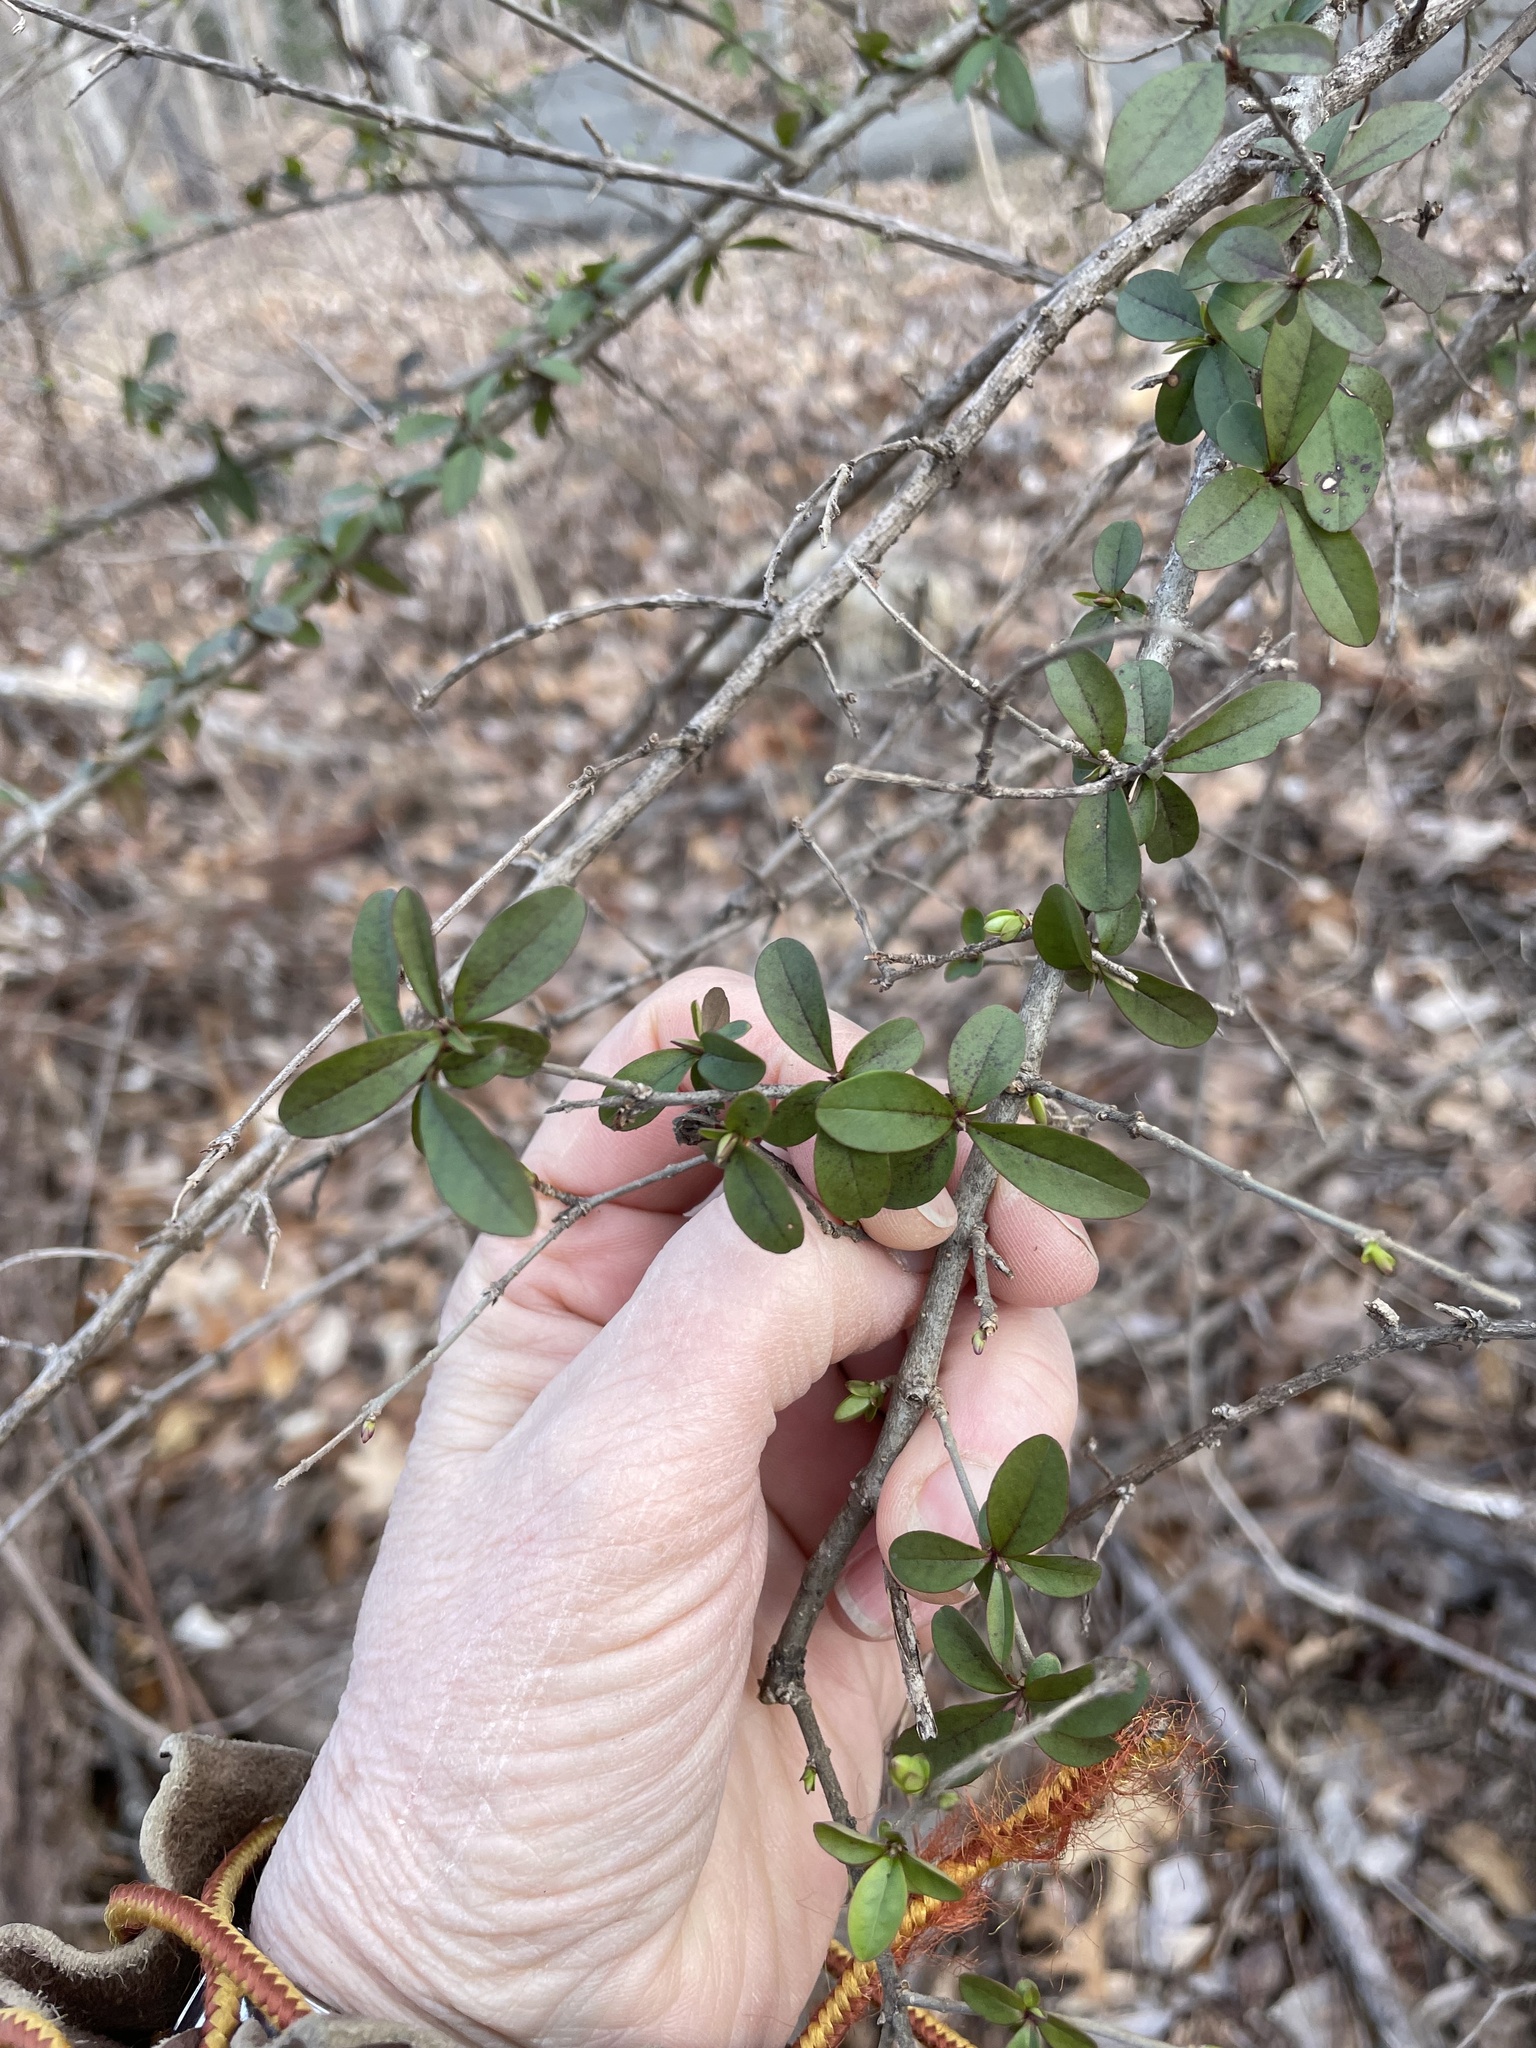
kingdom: Plantae
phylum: Tracheophyta
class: Magnoliopsida
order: Lamiales
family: Oleaceae
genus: Ligustrum
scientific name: Ligustrum obtusifolium
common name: Border privet
